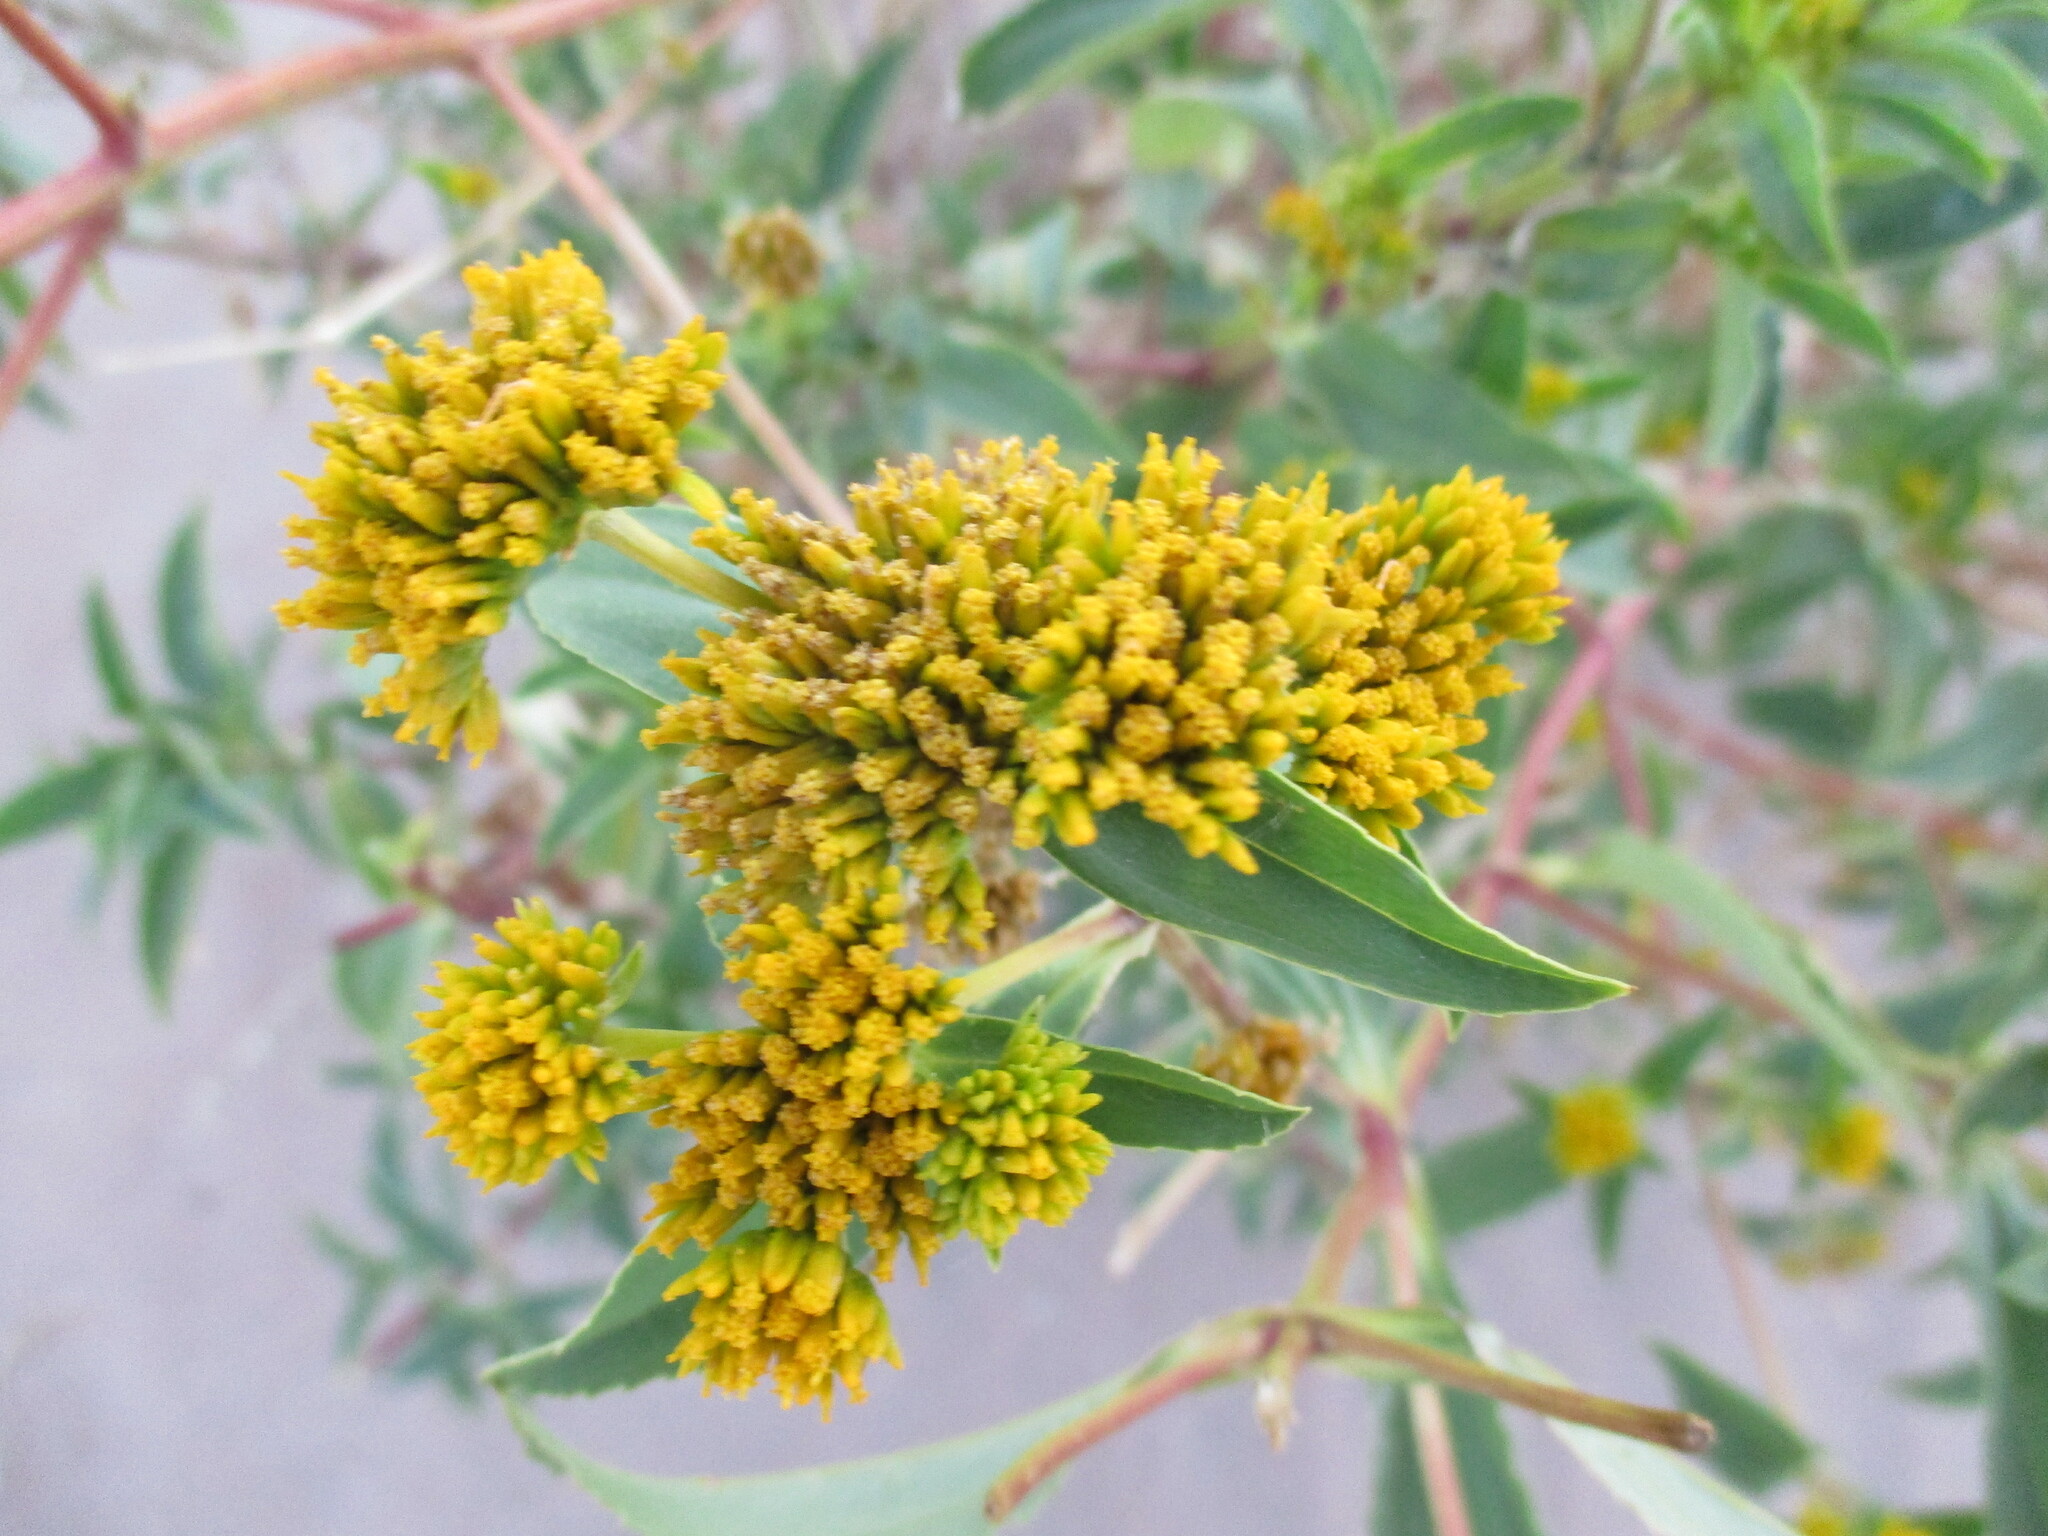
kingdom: Plantae
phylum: Tracheophyta
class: Magnoliopsida
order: Asterales
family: Asteraceae
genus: Flaveria
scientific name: Flaveria bidentis
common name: Coastal plain yellowtops
